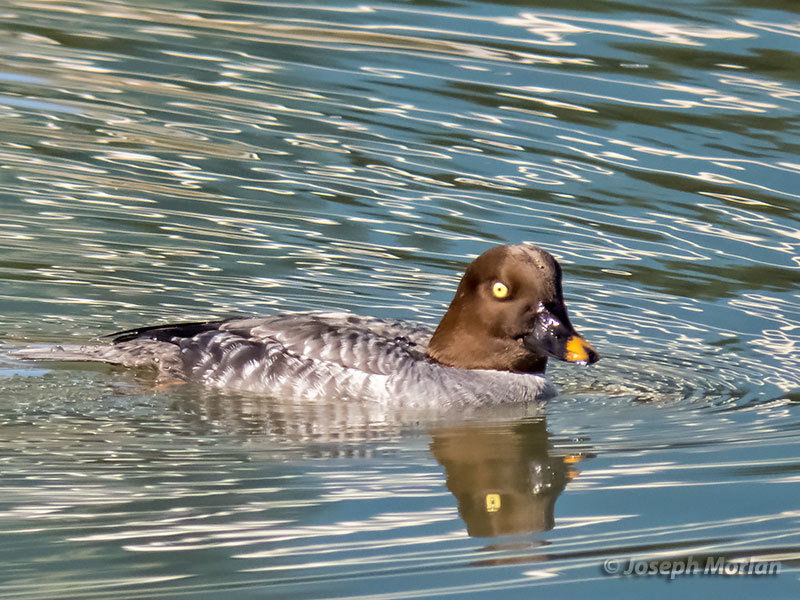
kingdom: Animalia
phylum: Chordata
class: Aves
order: Anseriformes
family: Anatidae
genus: Bucephala
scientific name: Bucephala clangula
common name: Common goldeneye
